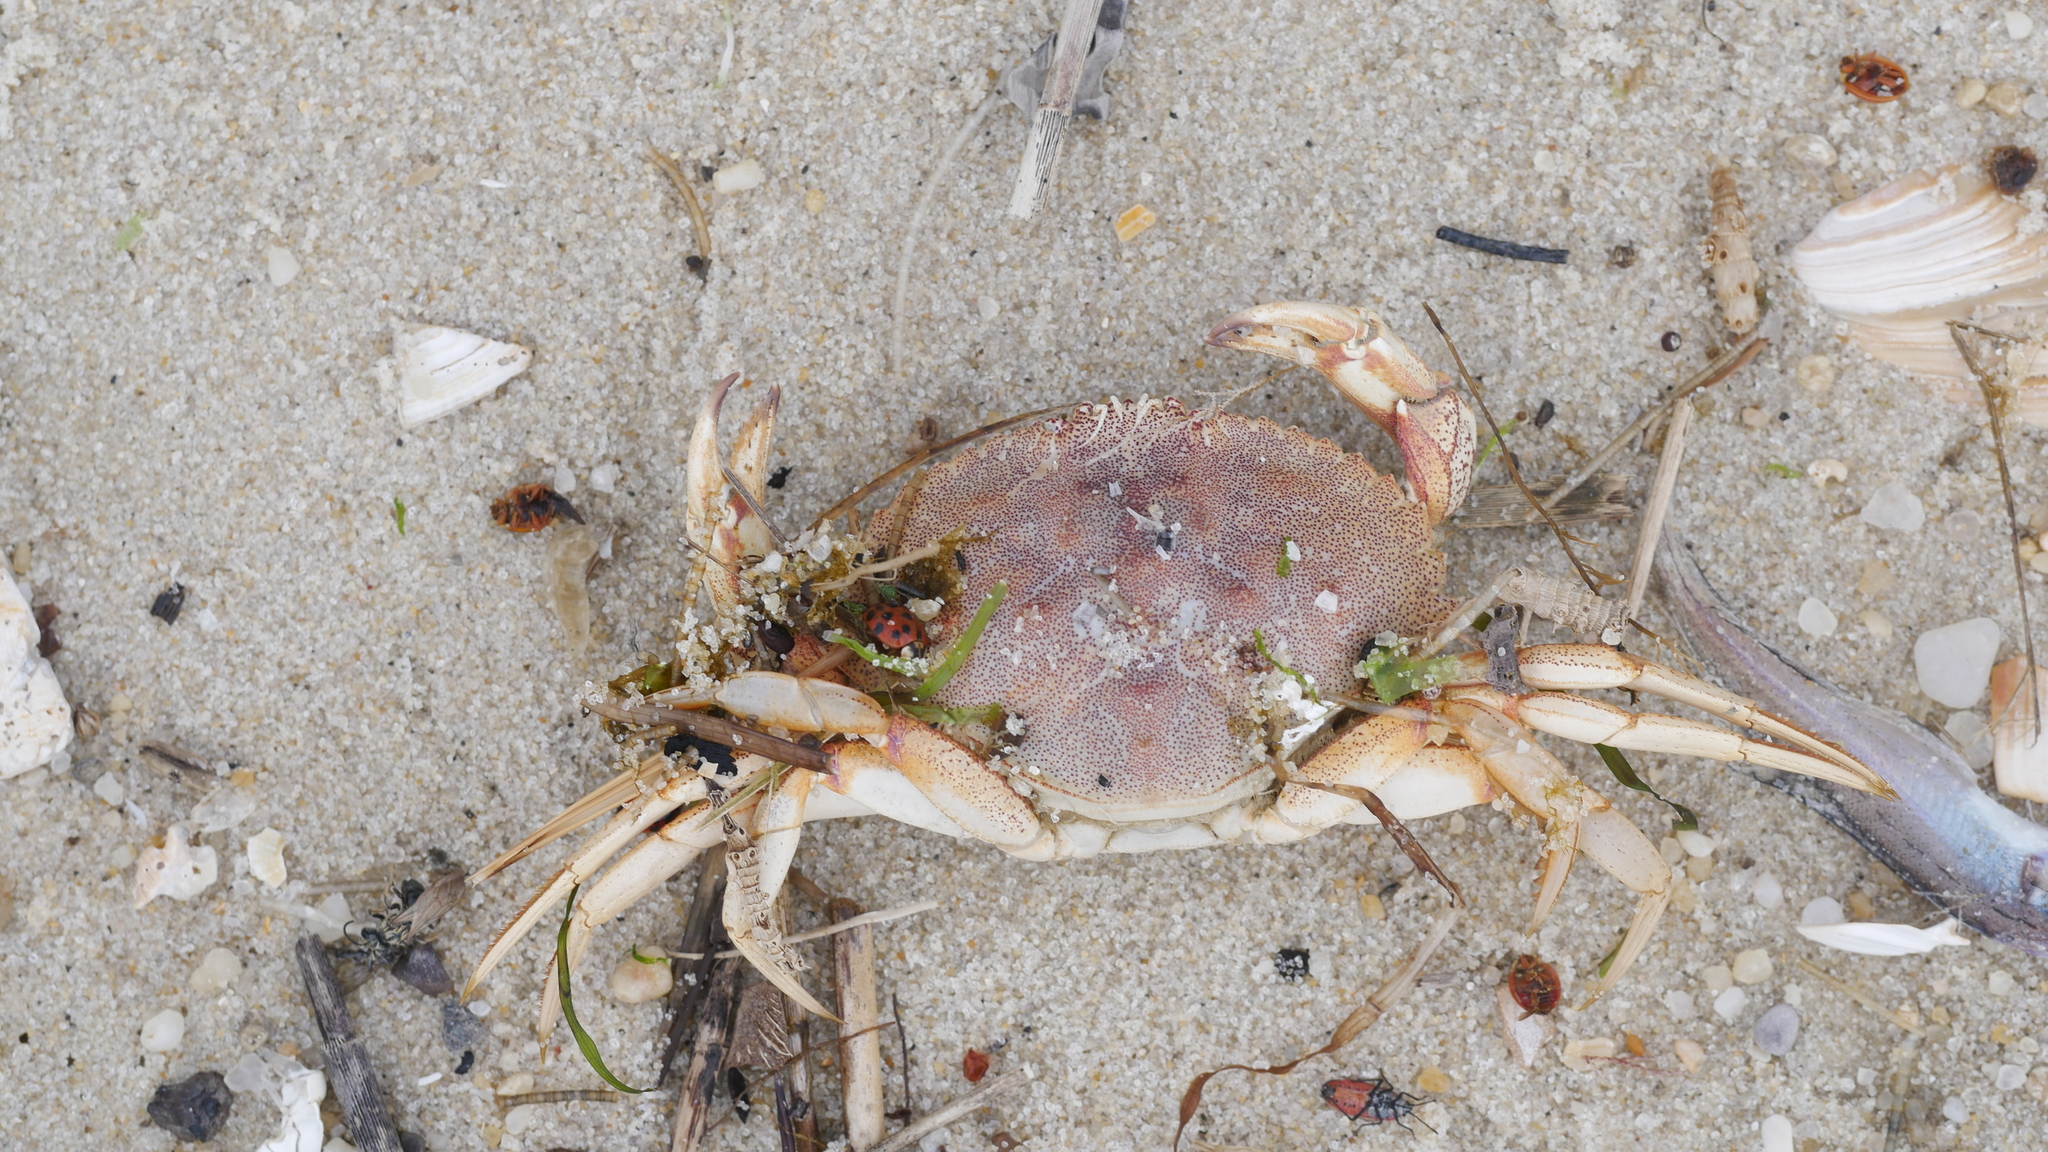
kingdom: Animalia
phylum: Arthropoda
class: Malacostraca
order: Decapoda
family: Cancridae
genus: Cancer
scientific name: Cancer irroratus
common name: Atlantic rock crab
